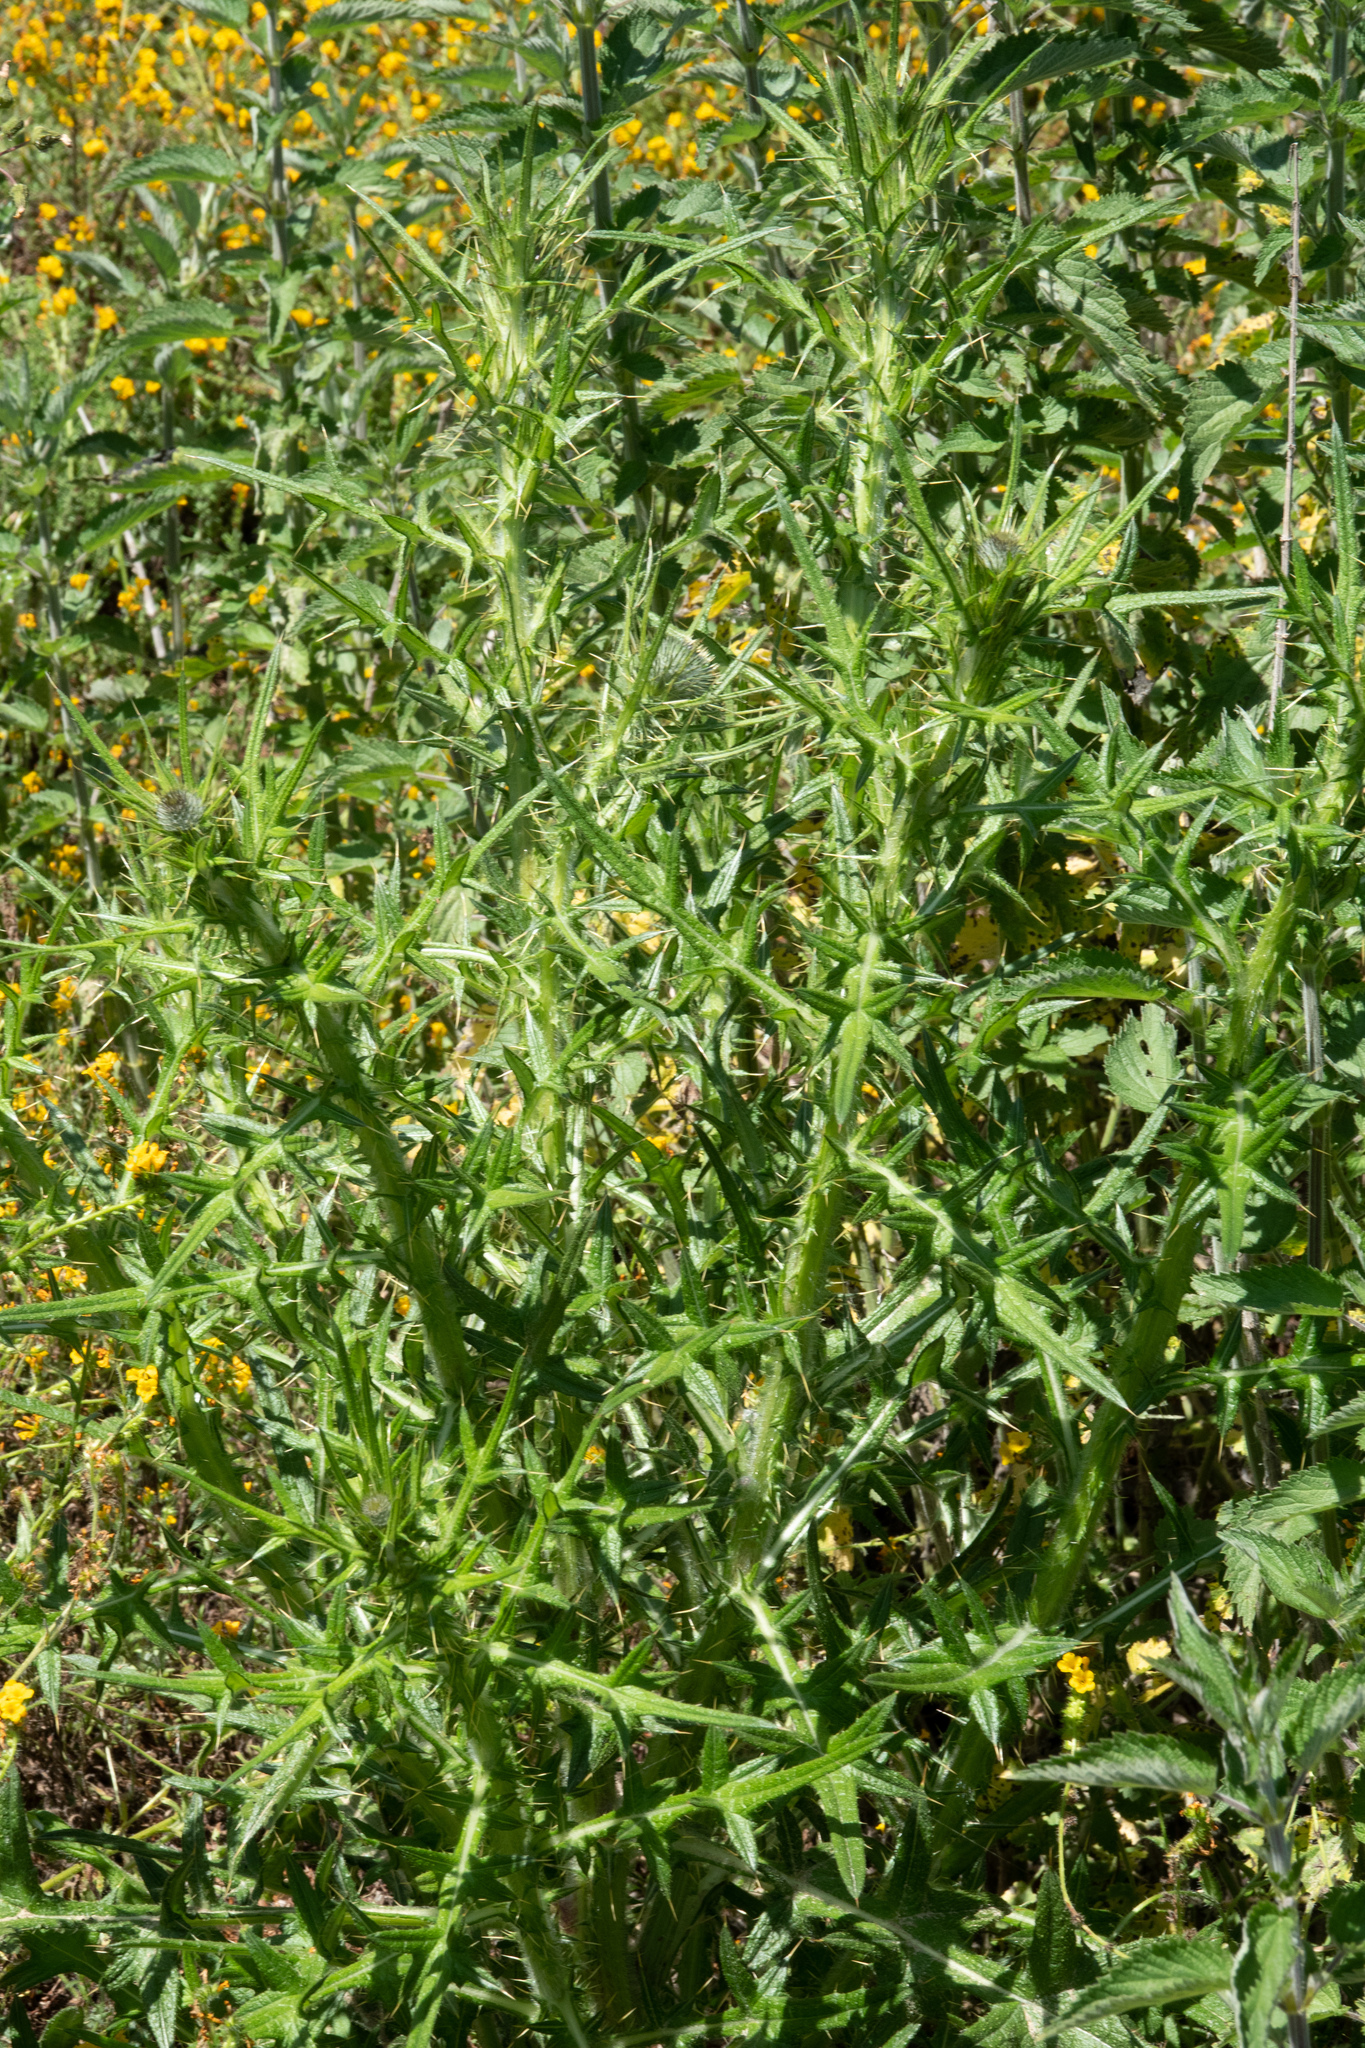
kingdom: Plantae
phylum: Tracheophyta
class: Magnoliopsida
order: Asterales
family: Asteraceae
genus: Cirsium
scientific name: Cirsium vulgare
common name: Bull thistle
